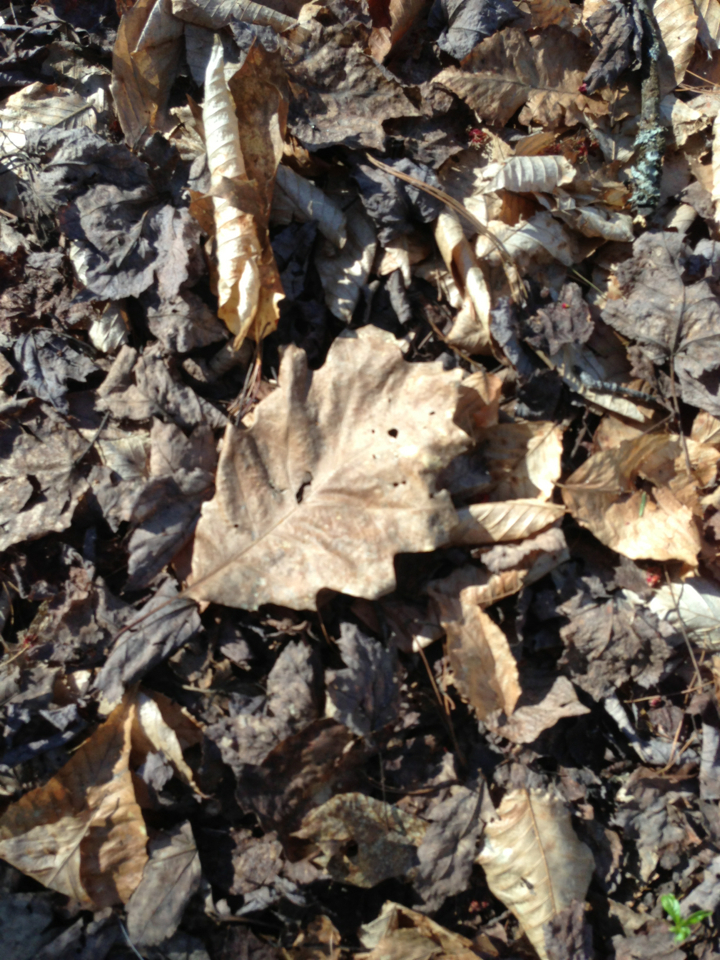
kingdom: Plantae
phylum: Tracheophyta
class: Magnoliopsida
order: Fagales
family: Fagaceae
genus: Quercus
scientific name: Quercus rubra
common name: Red oak
